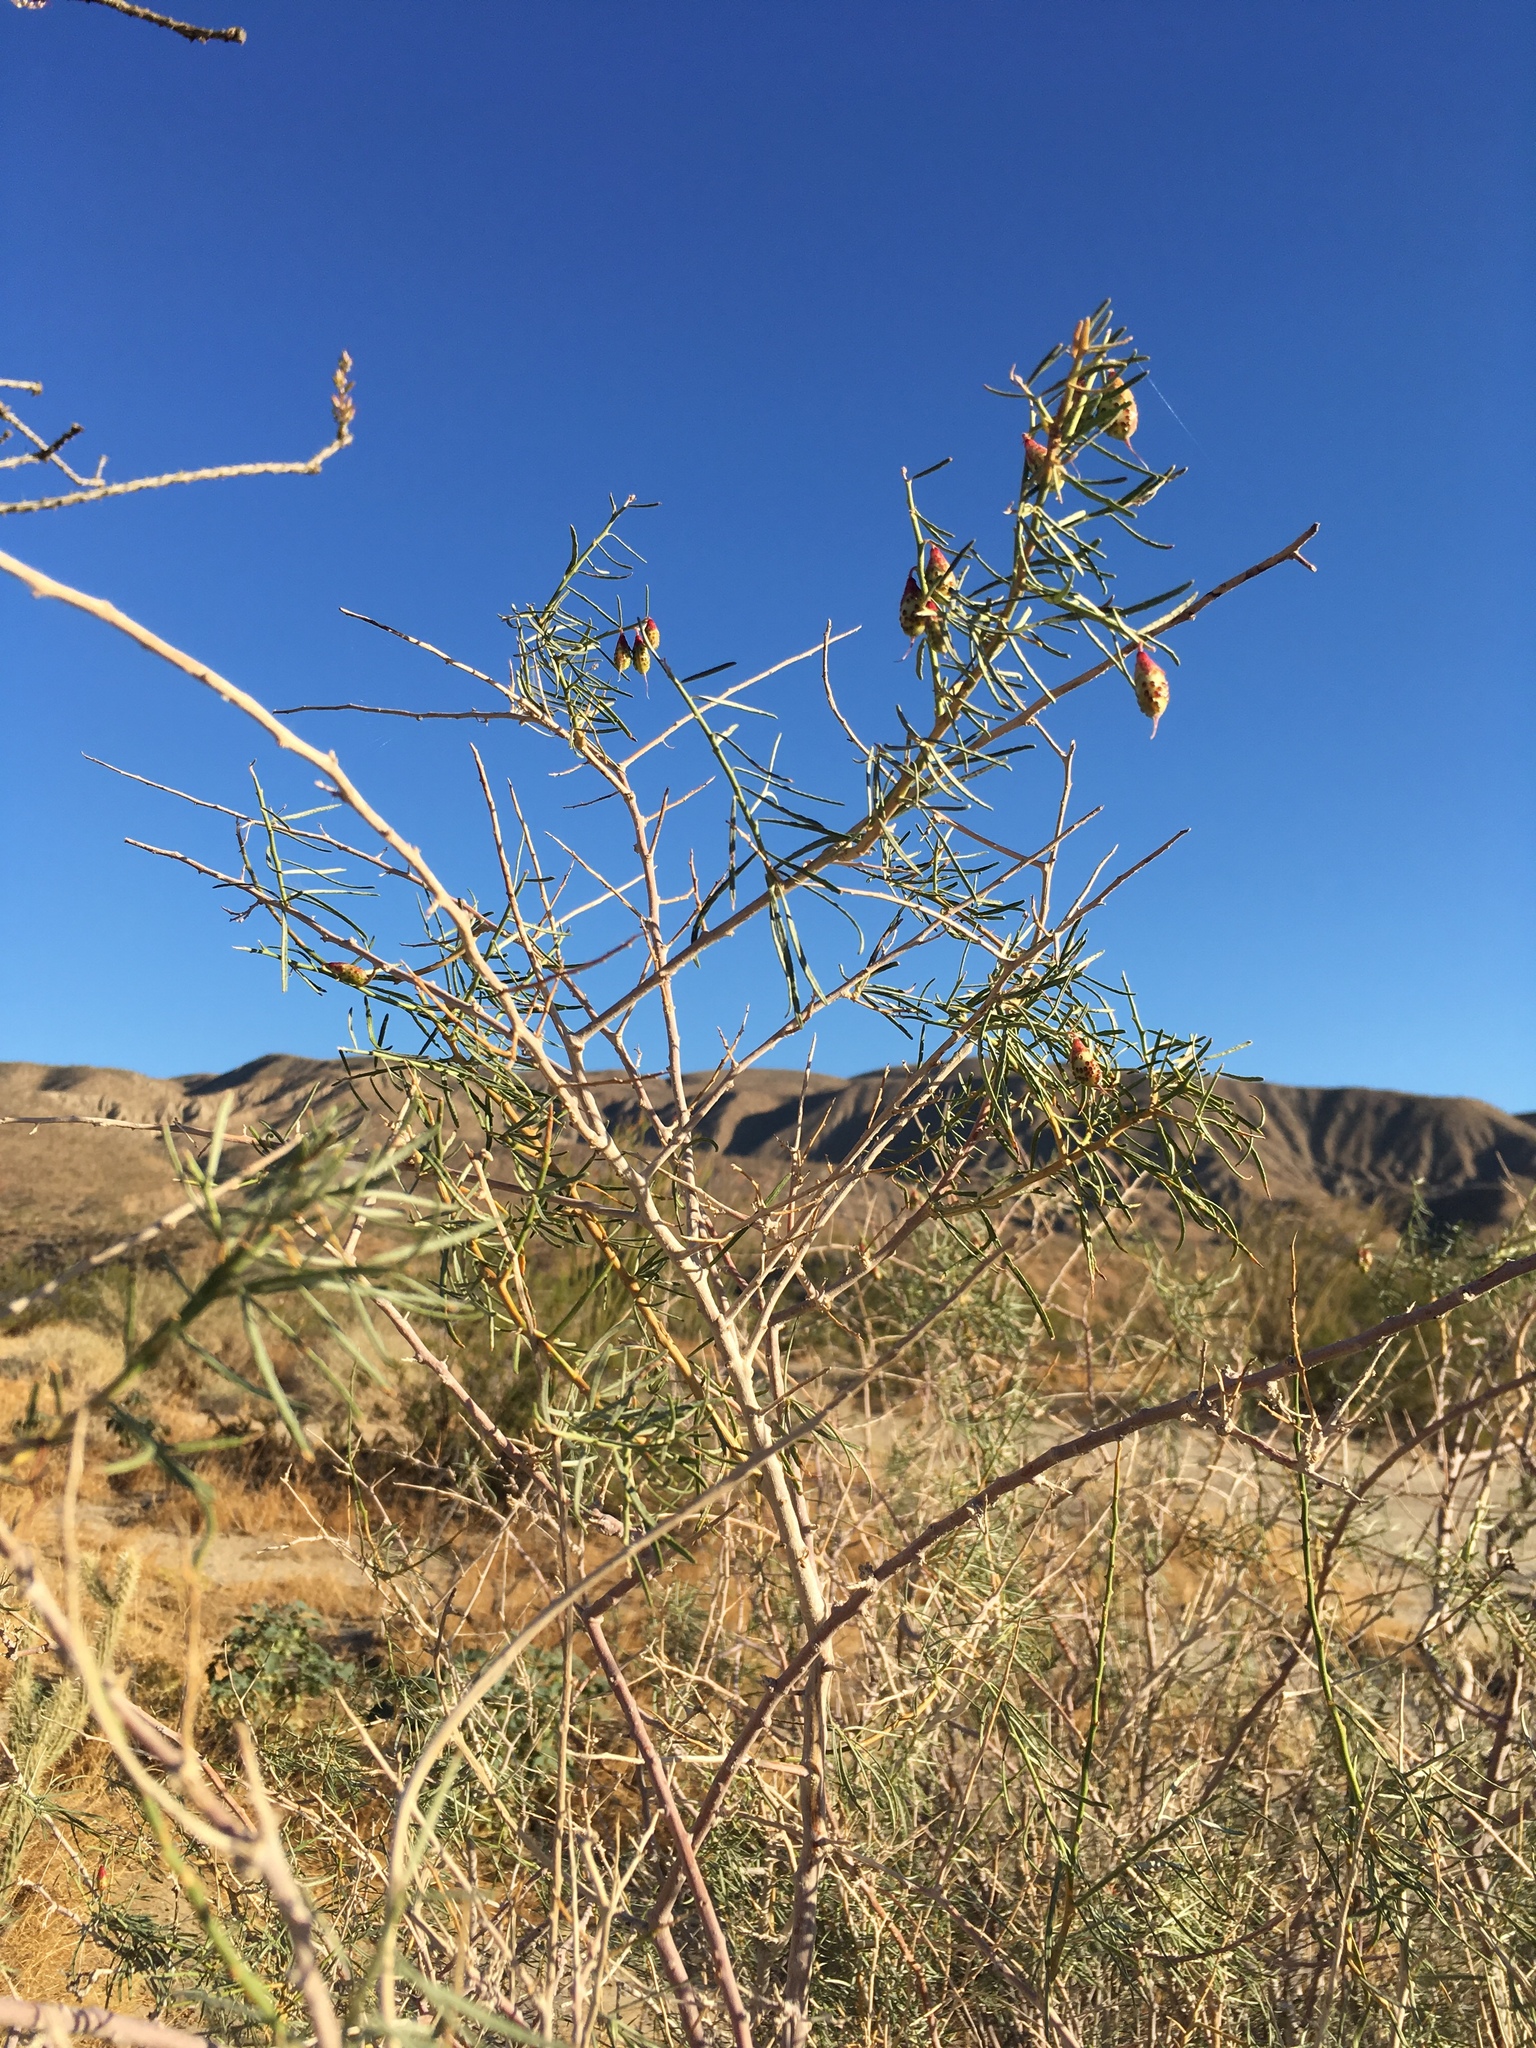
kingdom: Plantae
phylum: Tracheophyta
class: Magnoliopsida
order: Fabales
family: Fabaceae
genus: Psorothamnus
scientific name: Psorothamnus schottii
